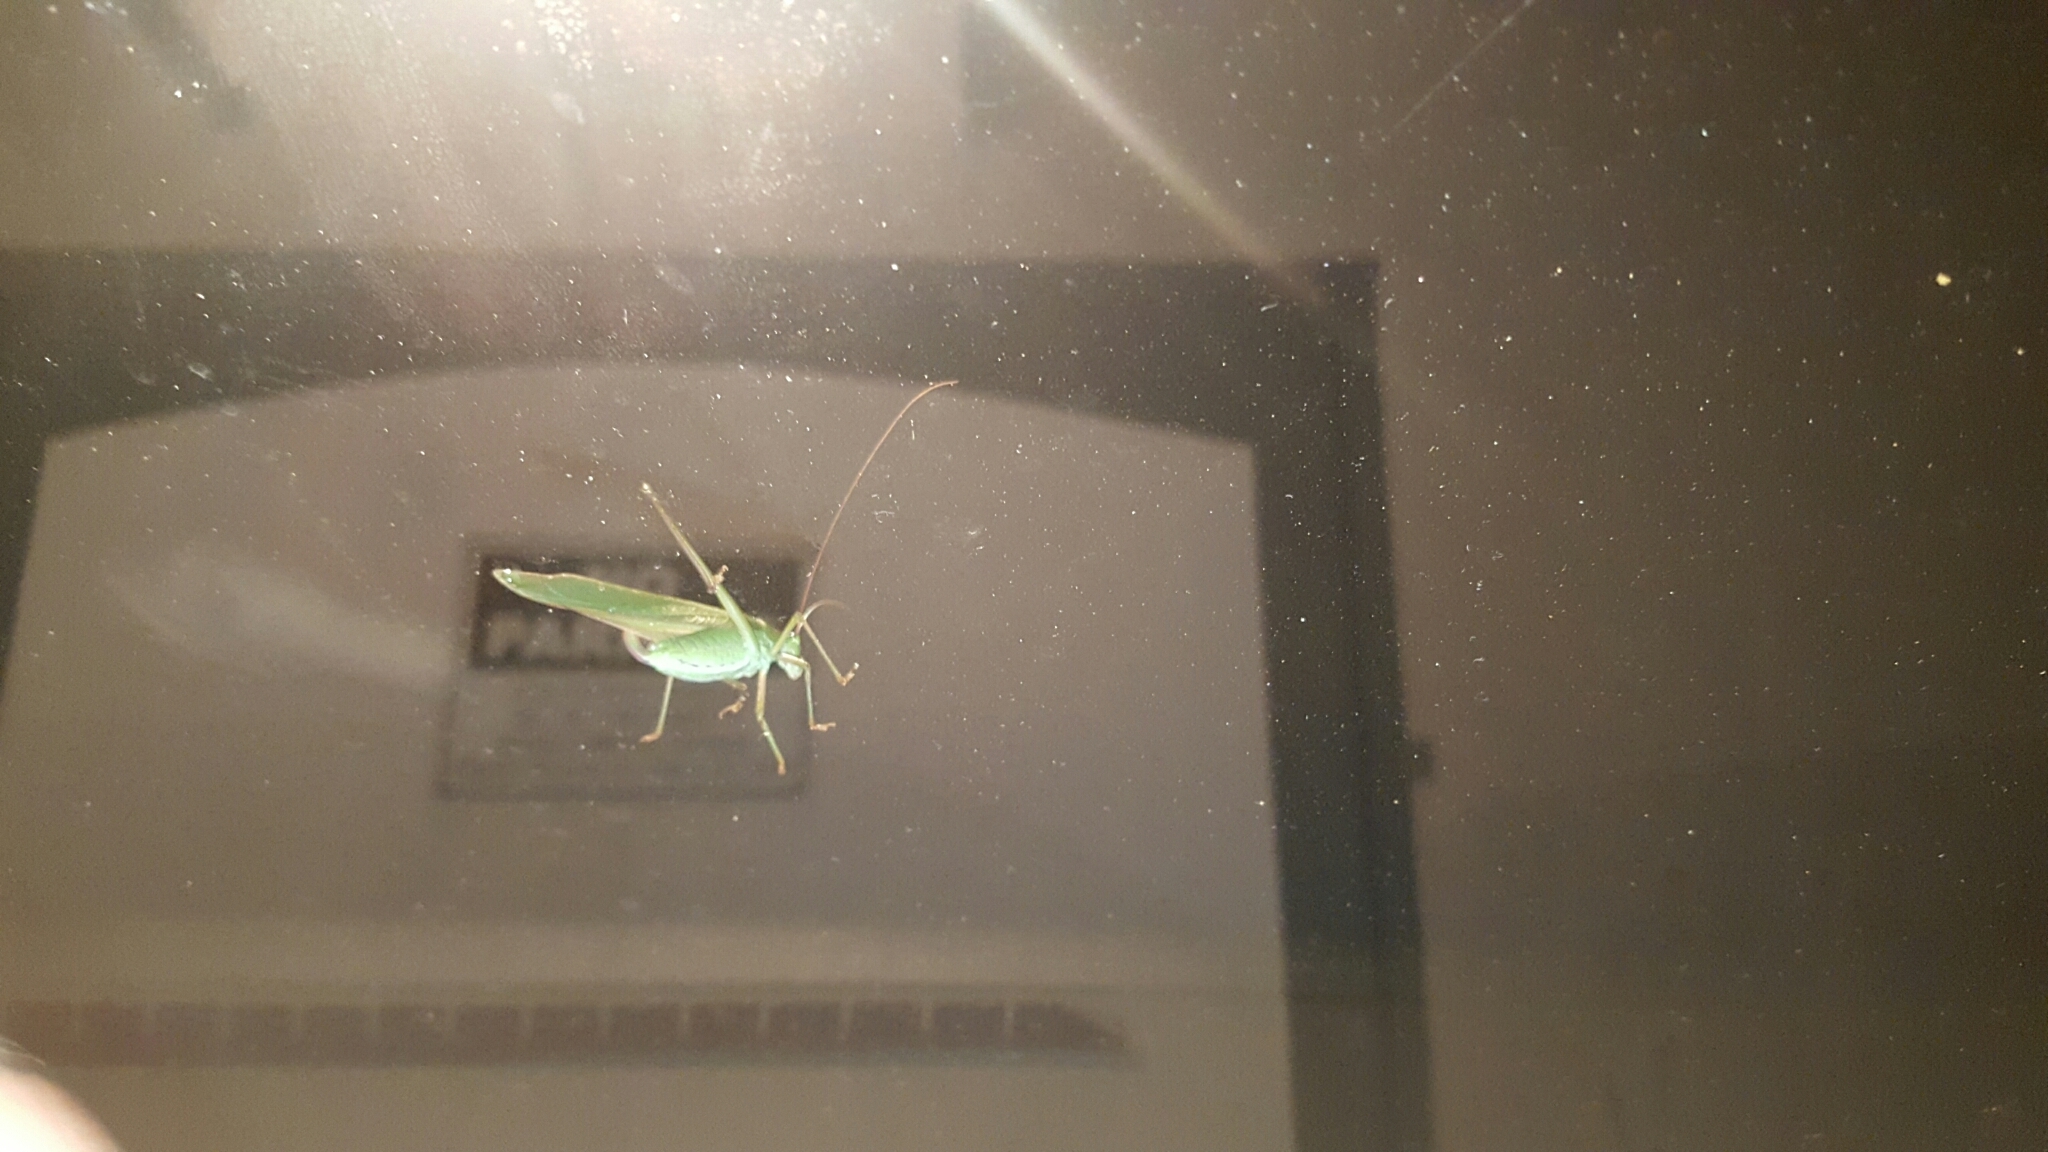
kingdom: Animalia
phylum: Arthropoda
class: Insecta
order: Orthoptera
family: Tettigoniidae
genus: Scudderia
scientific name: Scudderia
